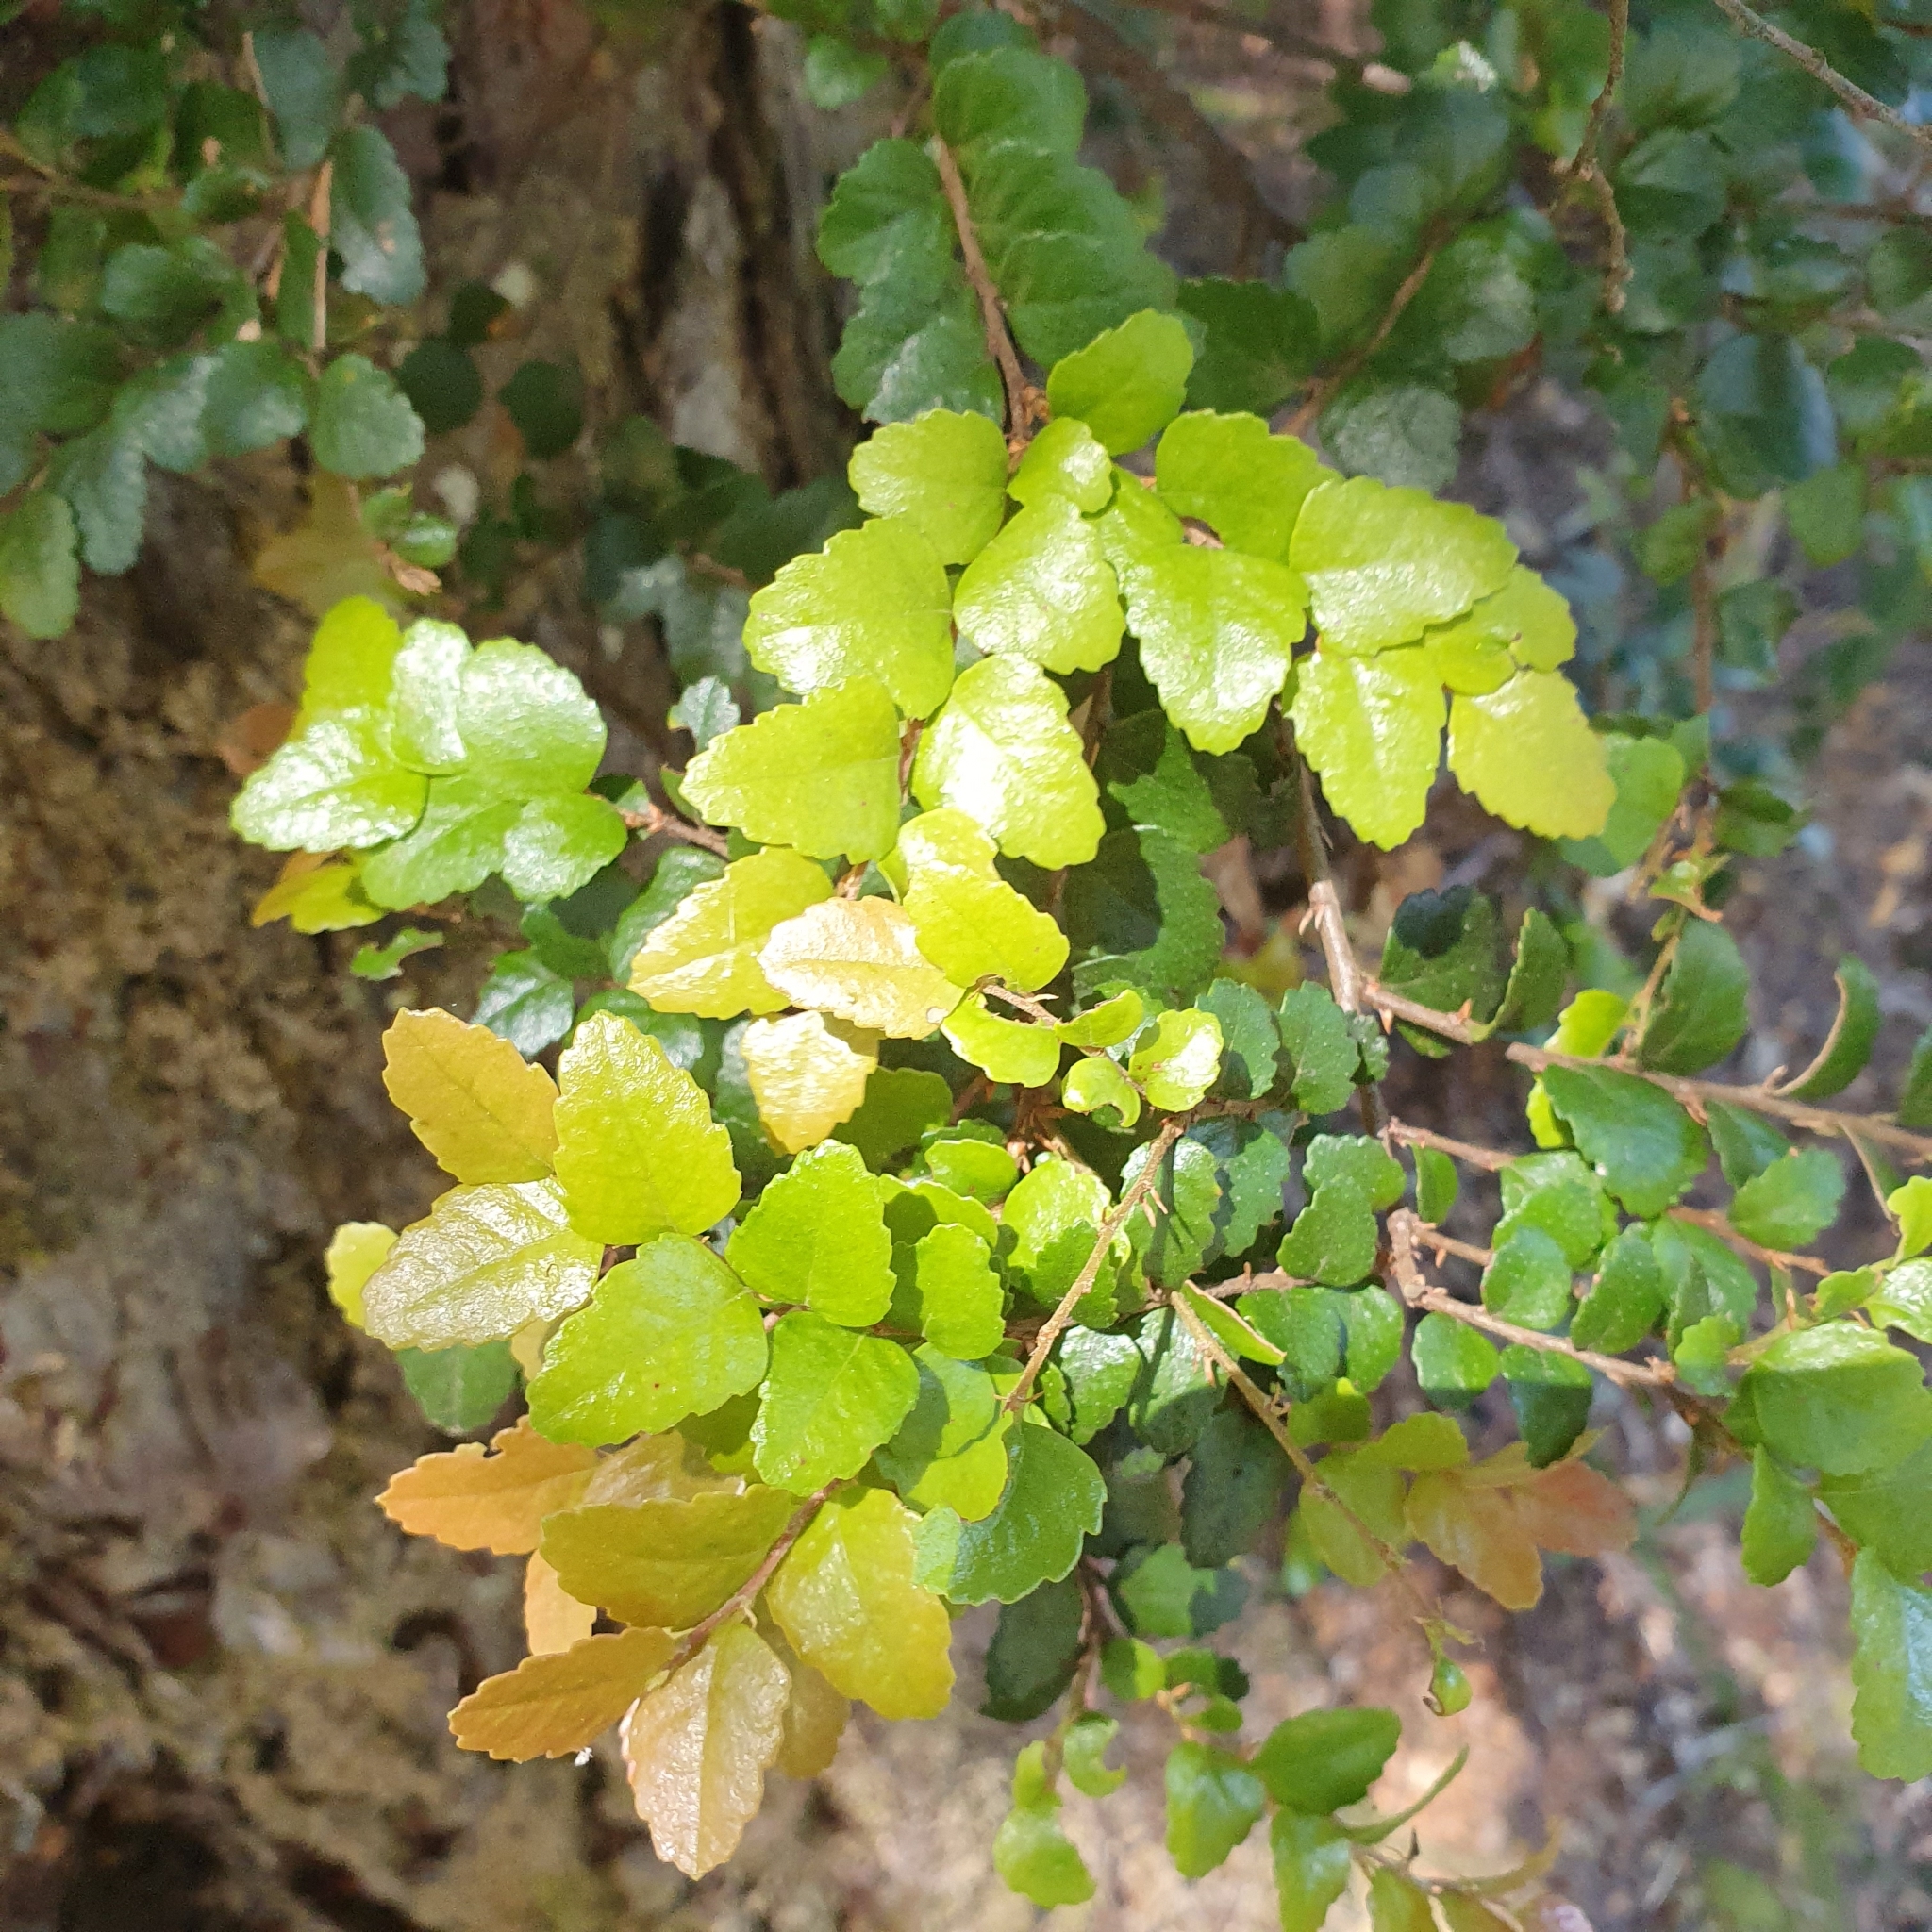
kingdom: Plantae
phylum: Tracheophyta
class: Magnoliopsida
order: Fagales
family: Nothofagaceae
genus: Nothofagus
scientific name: Nothofagus cunninghamii
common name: Myrtle beech
